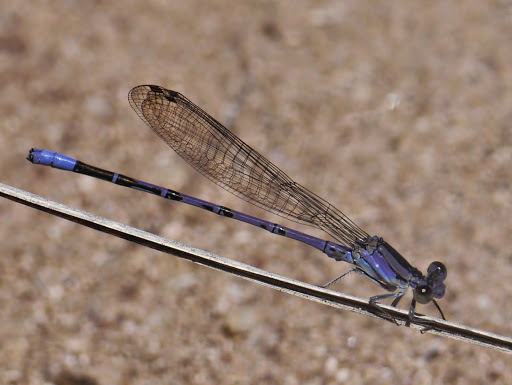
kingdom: Animalia
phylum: Arthropoda
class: Insecta
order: Odonata
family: Coenagrionidae
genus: Argia
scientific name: Argia funebris
